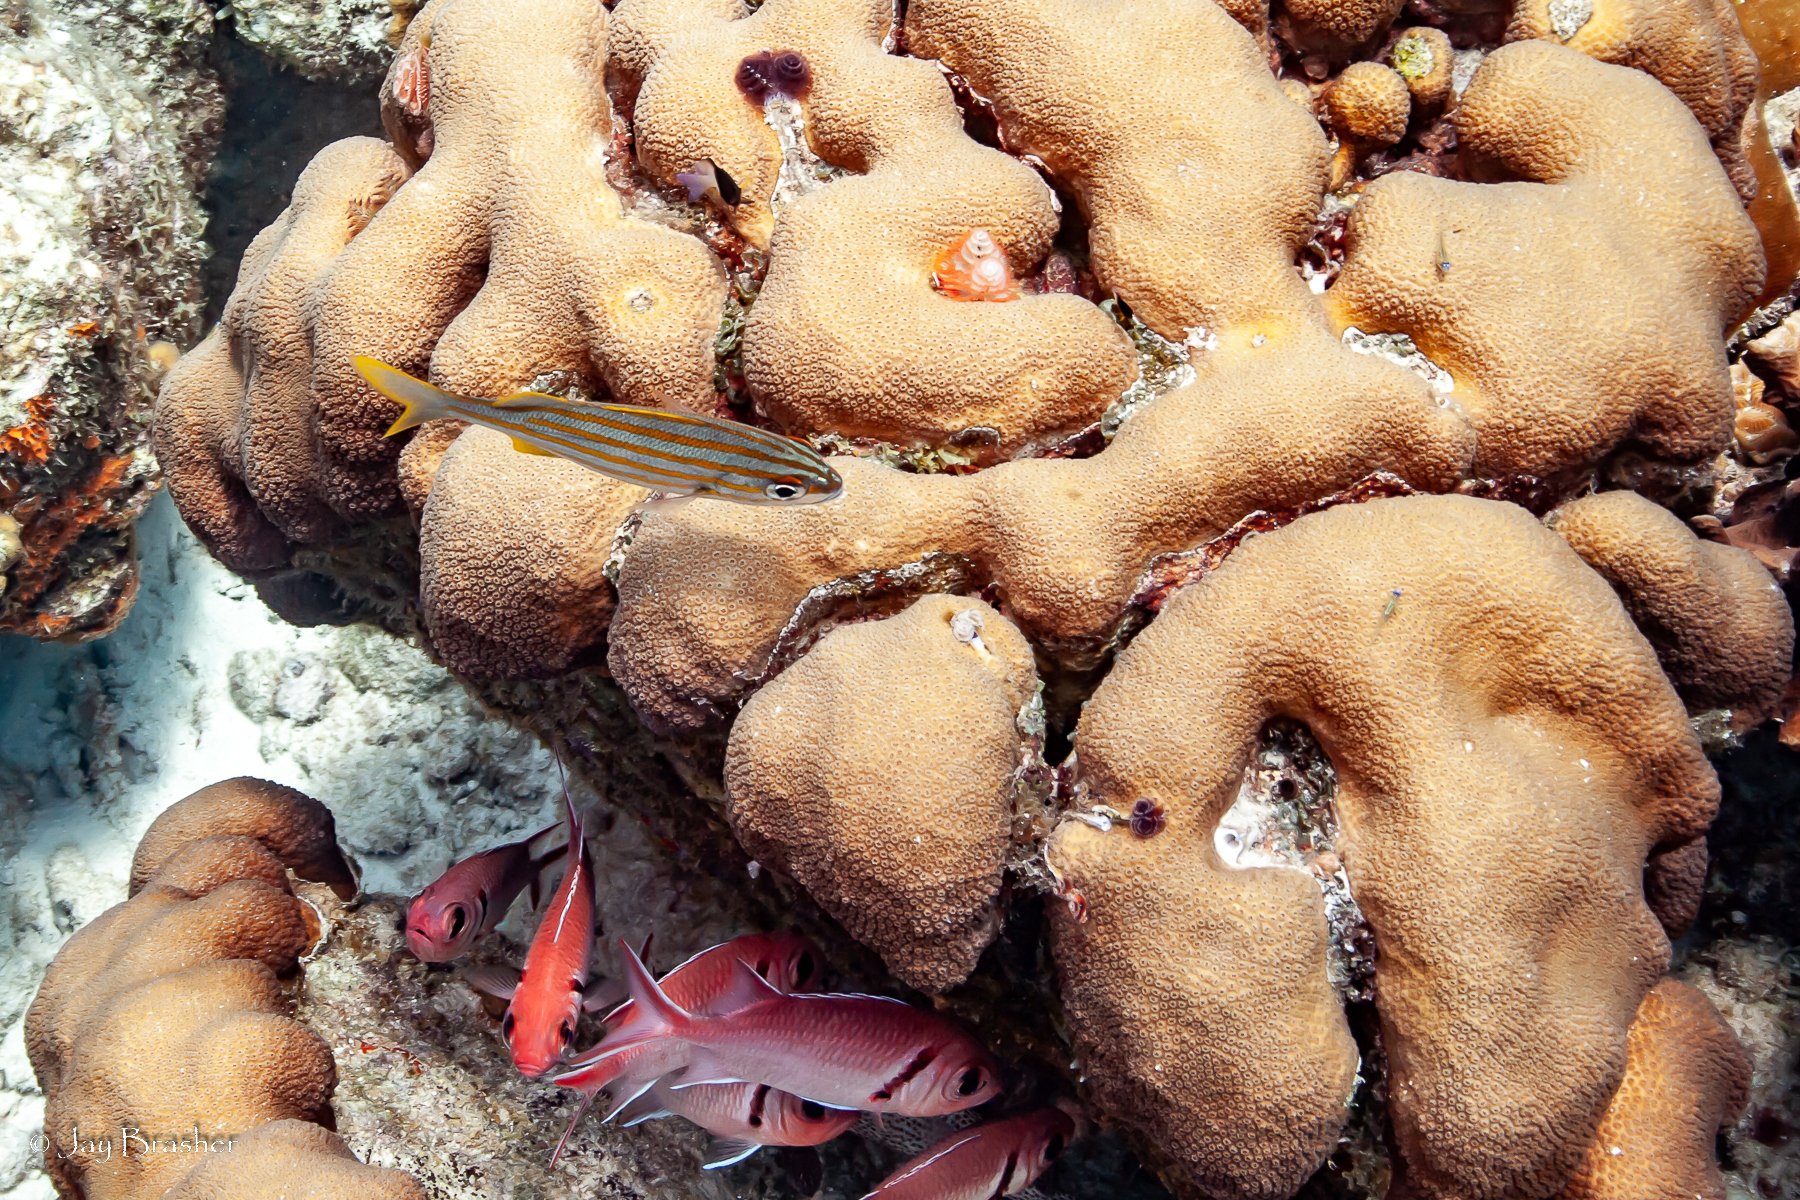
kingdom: Animalia
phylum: Chordata
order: Beryciformes
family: Holocentridae
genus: Myripristis
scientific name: Myripristis jacobus
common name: Blackbar soldierfish
